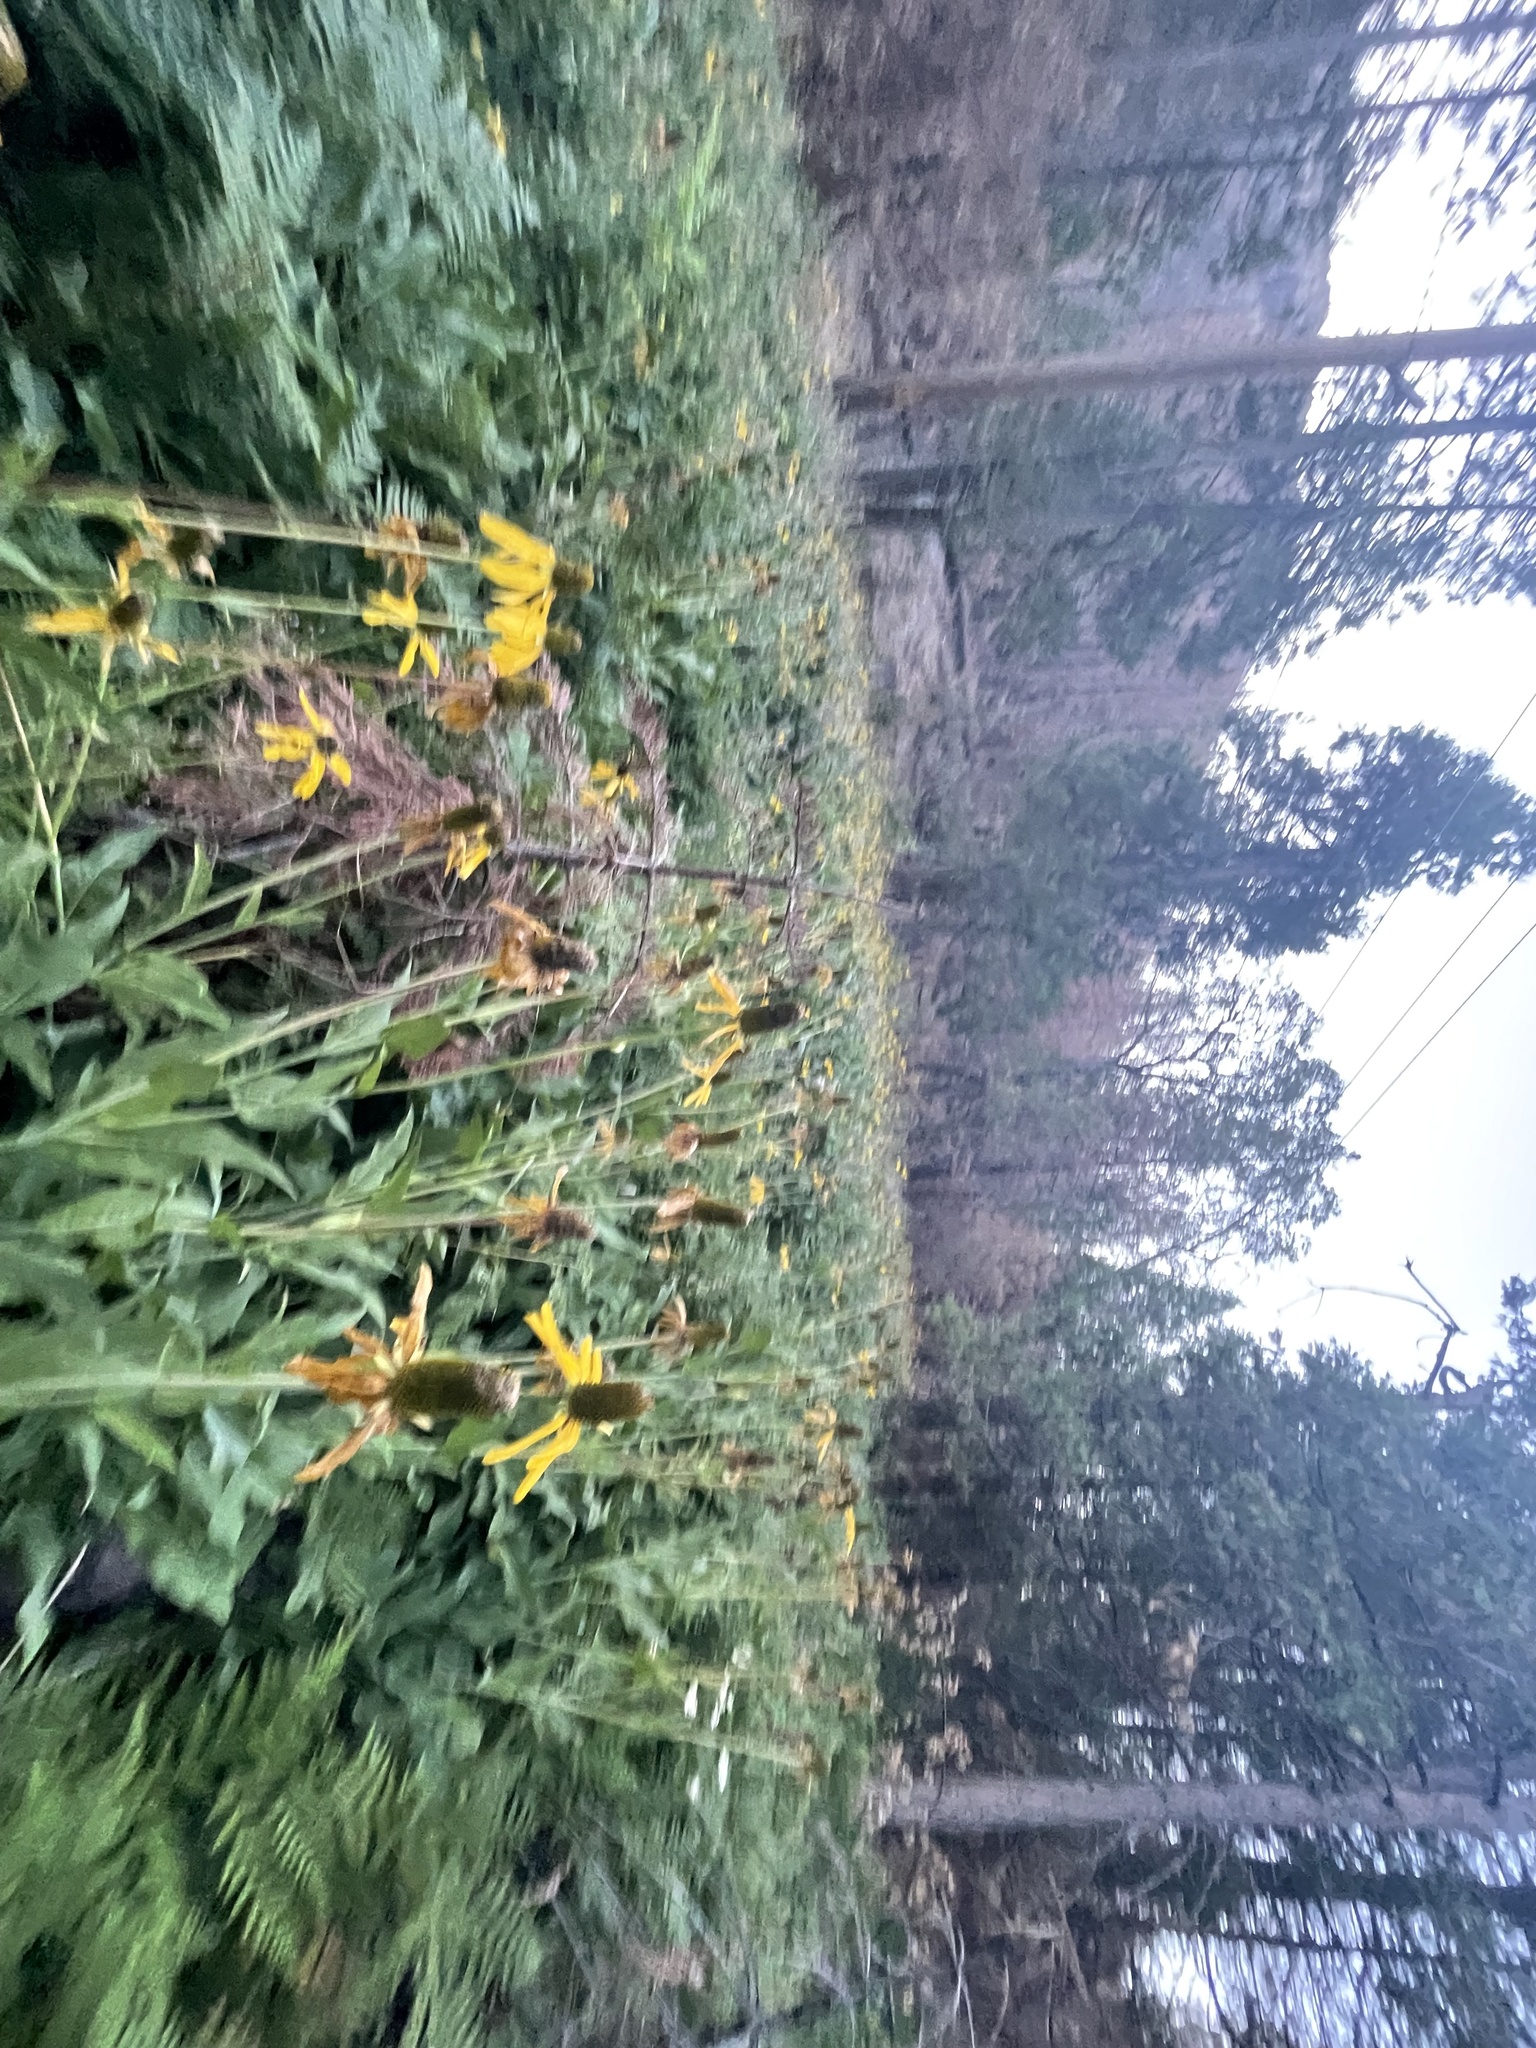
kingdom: Plantae
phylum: Tracheophyta
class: Magnoliopsida
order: Asterales
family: Asteraceae
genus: Rudbeckia
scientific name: Rudbeckia californica
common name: California coneflower
